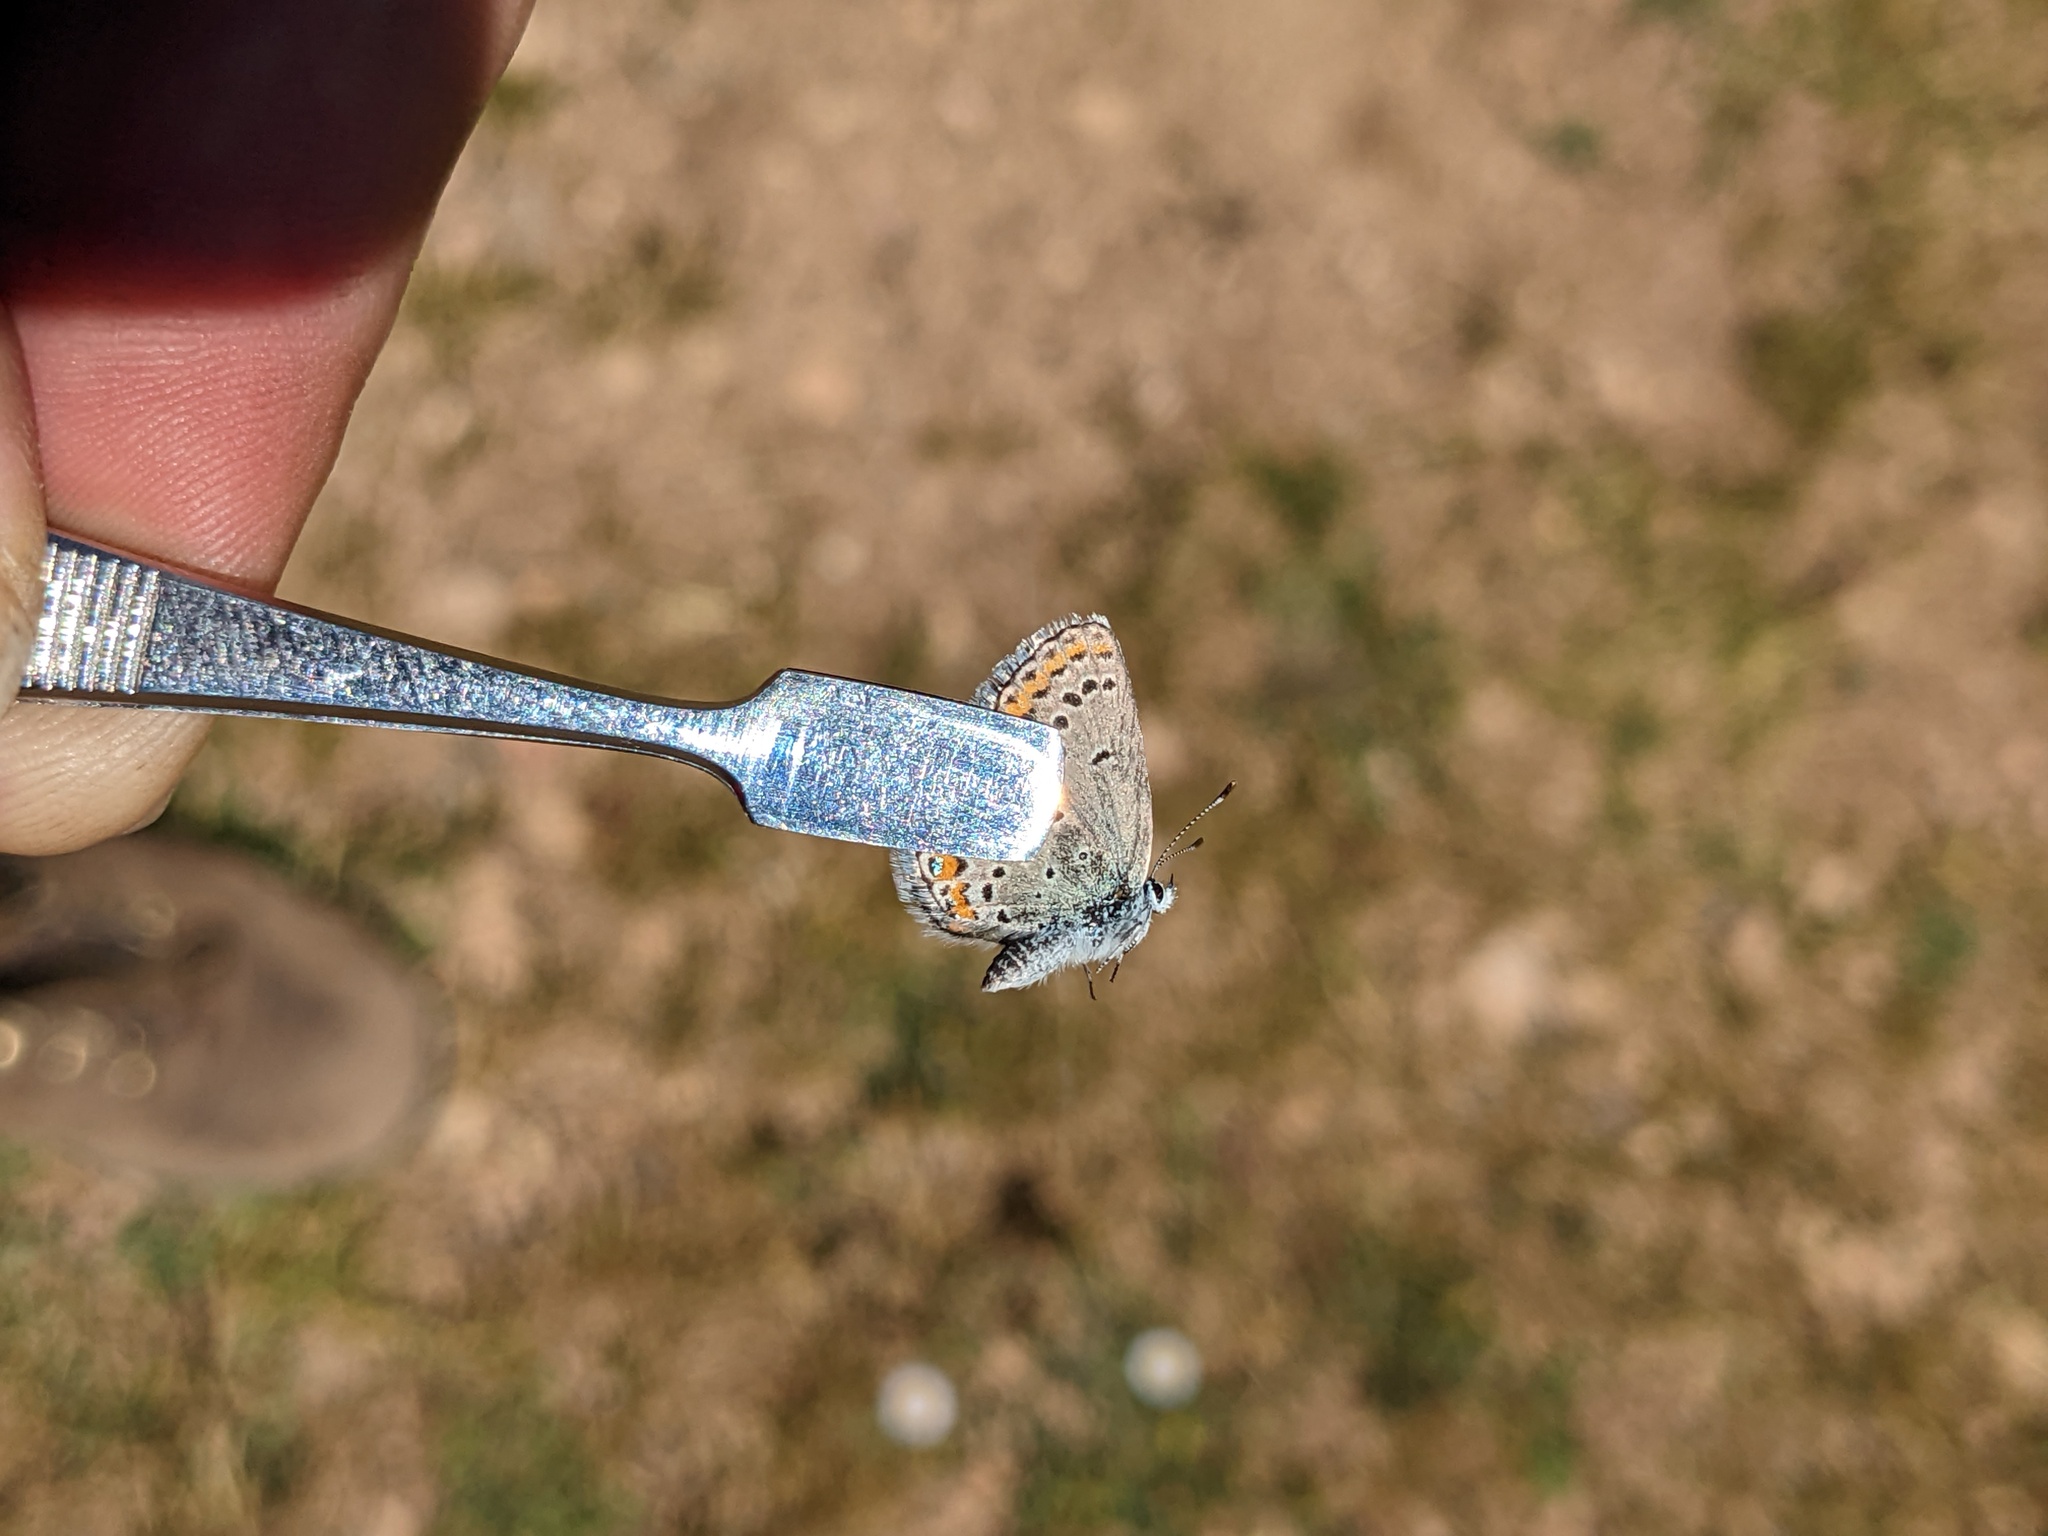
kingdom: Animalia
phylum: Arthropoda
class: Insecta
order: Lepidoptera
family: Lycaenidae
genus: Lycaeides
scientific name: Lycaeides melissa
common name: Melissa blue
